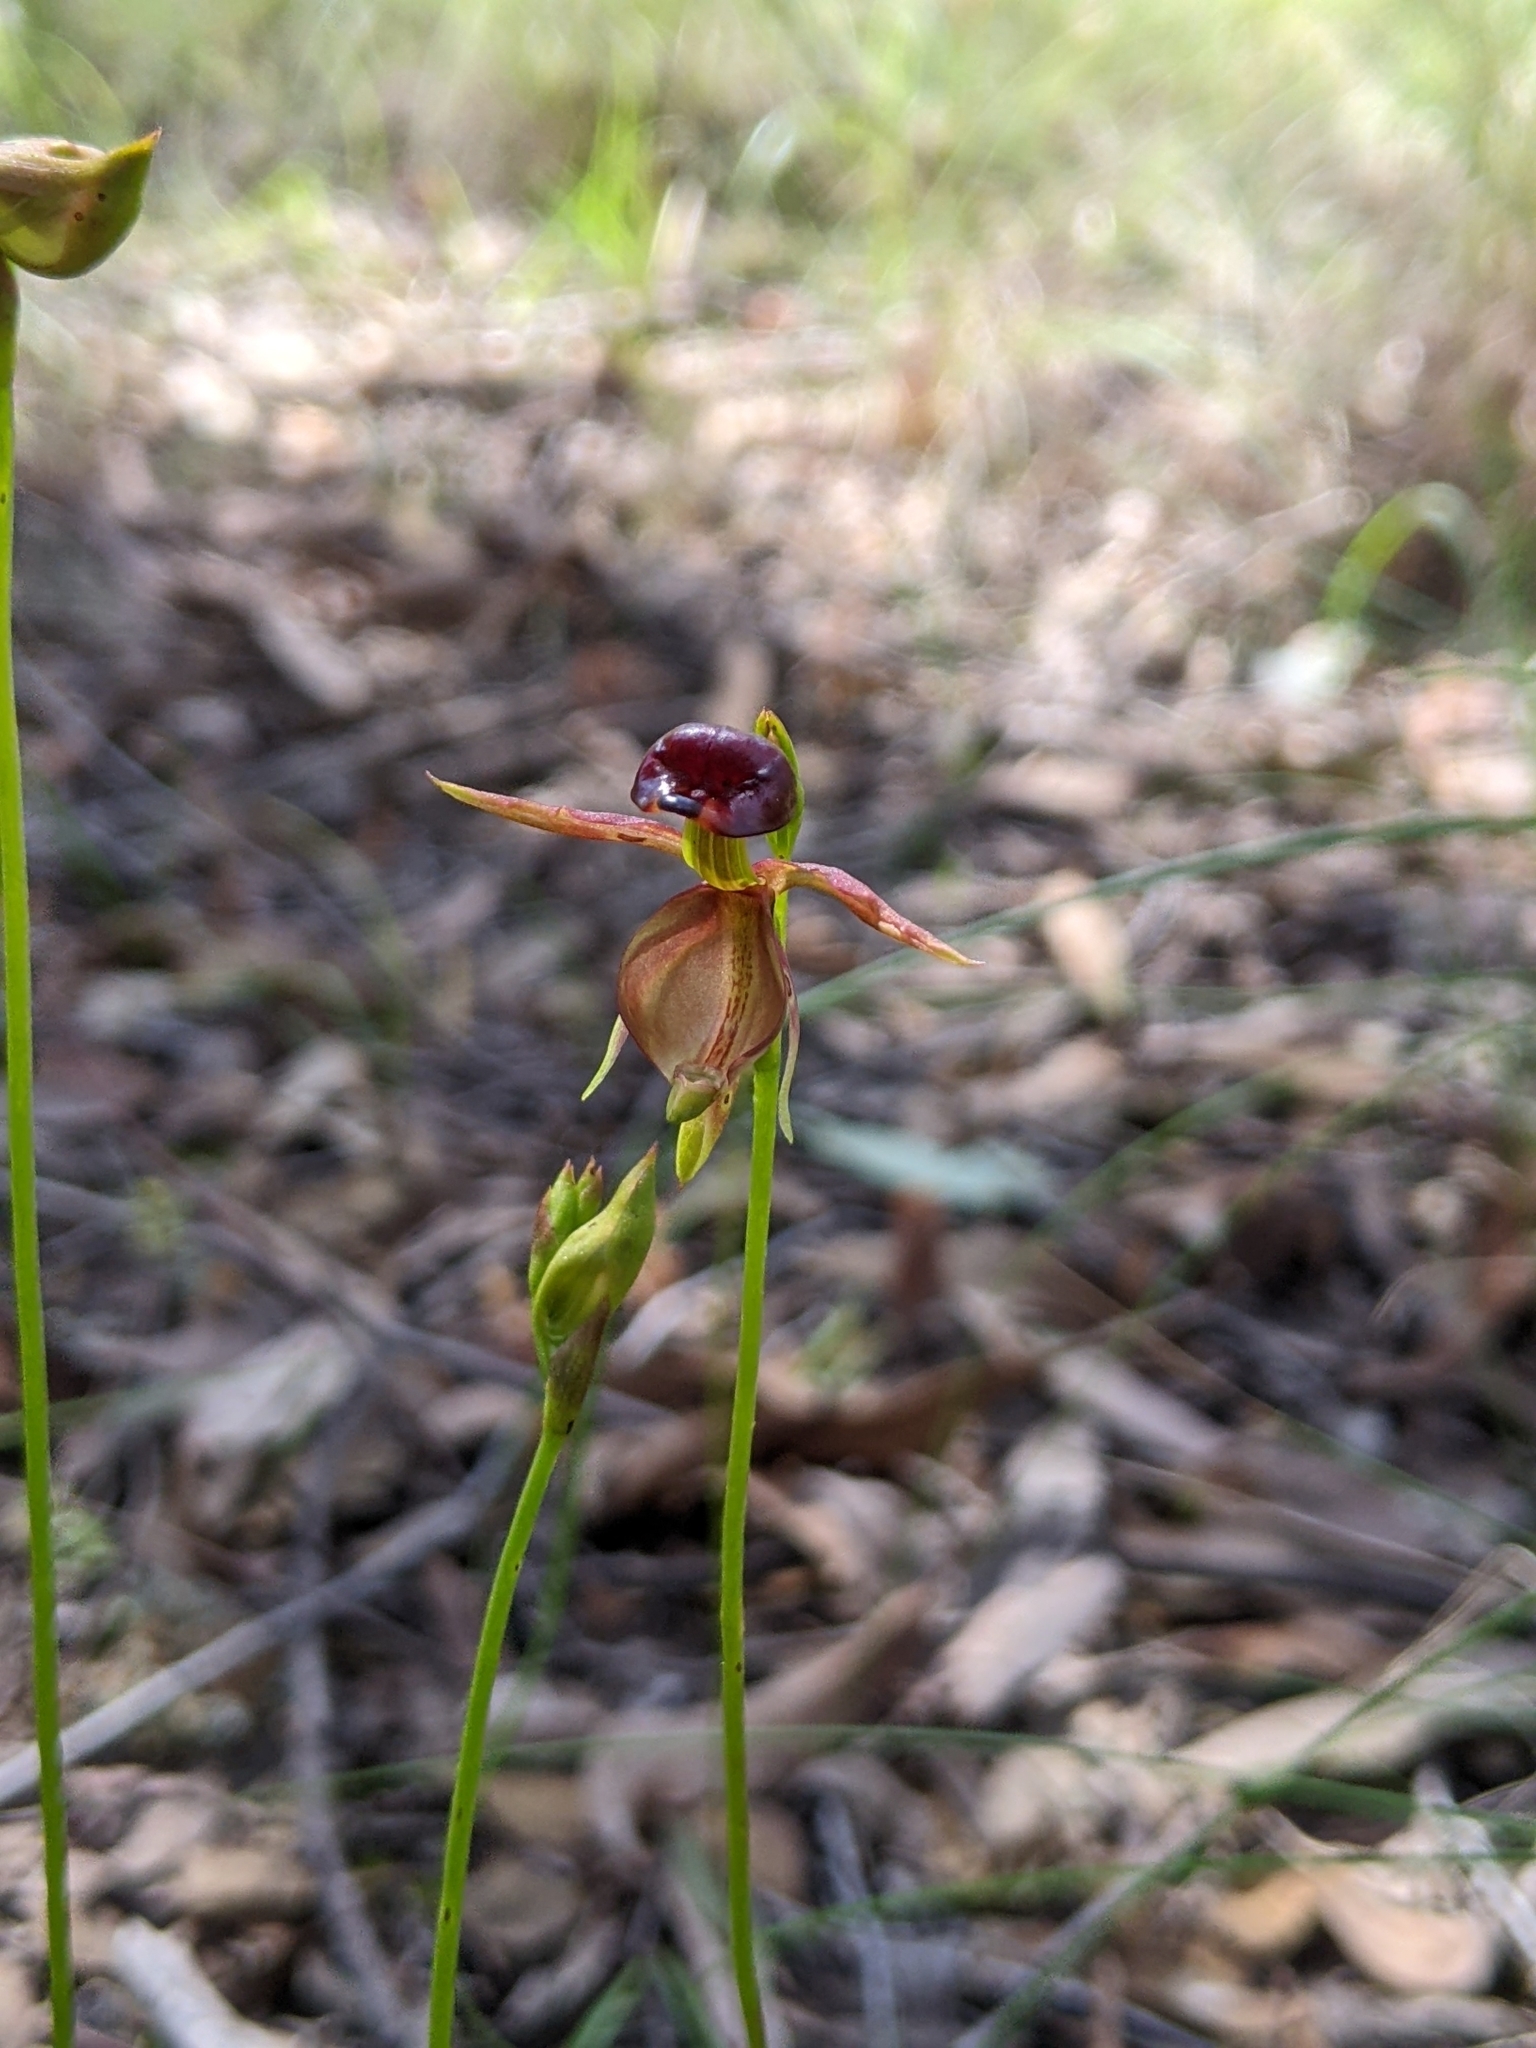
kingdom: Plantae
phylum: Tracheophyta
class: Liliopsida
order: Asparagales
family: Orchidaceae
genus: Caleana
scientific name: Caleana major
